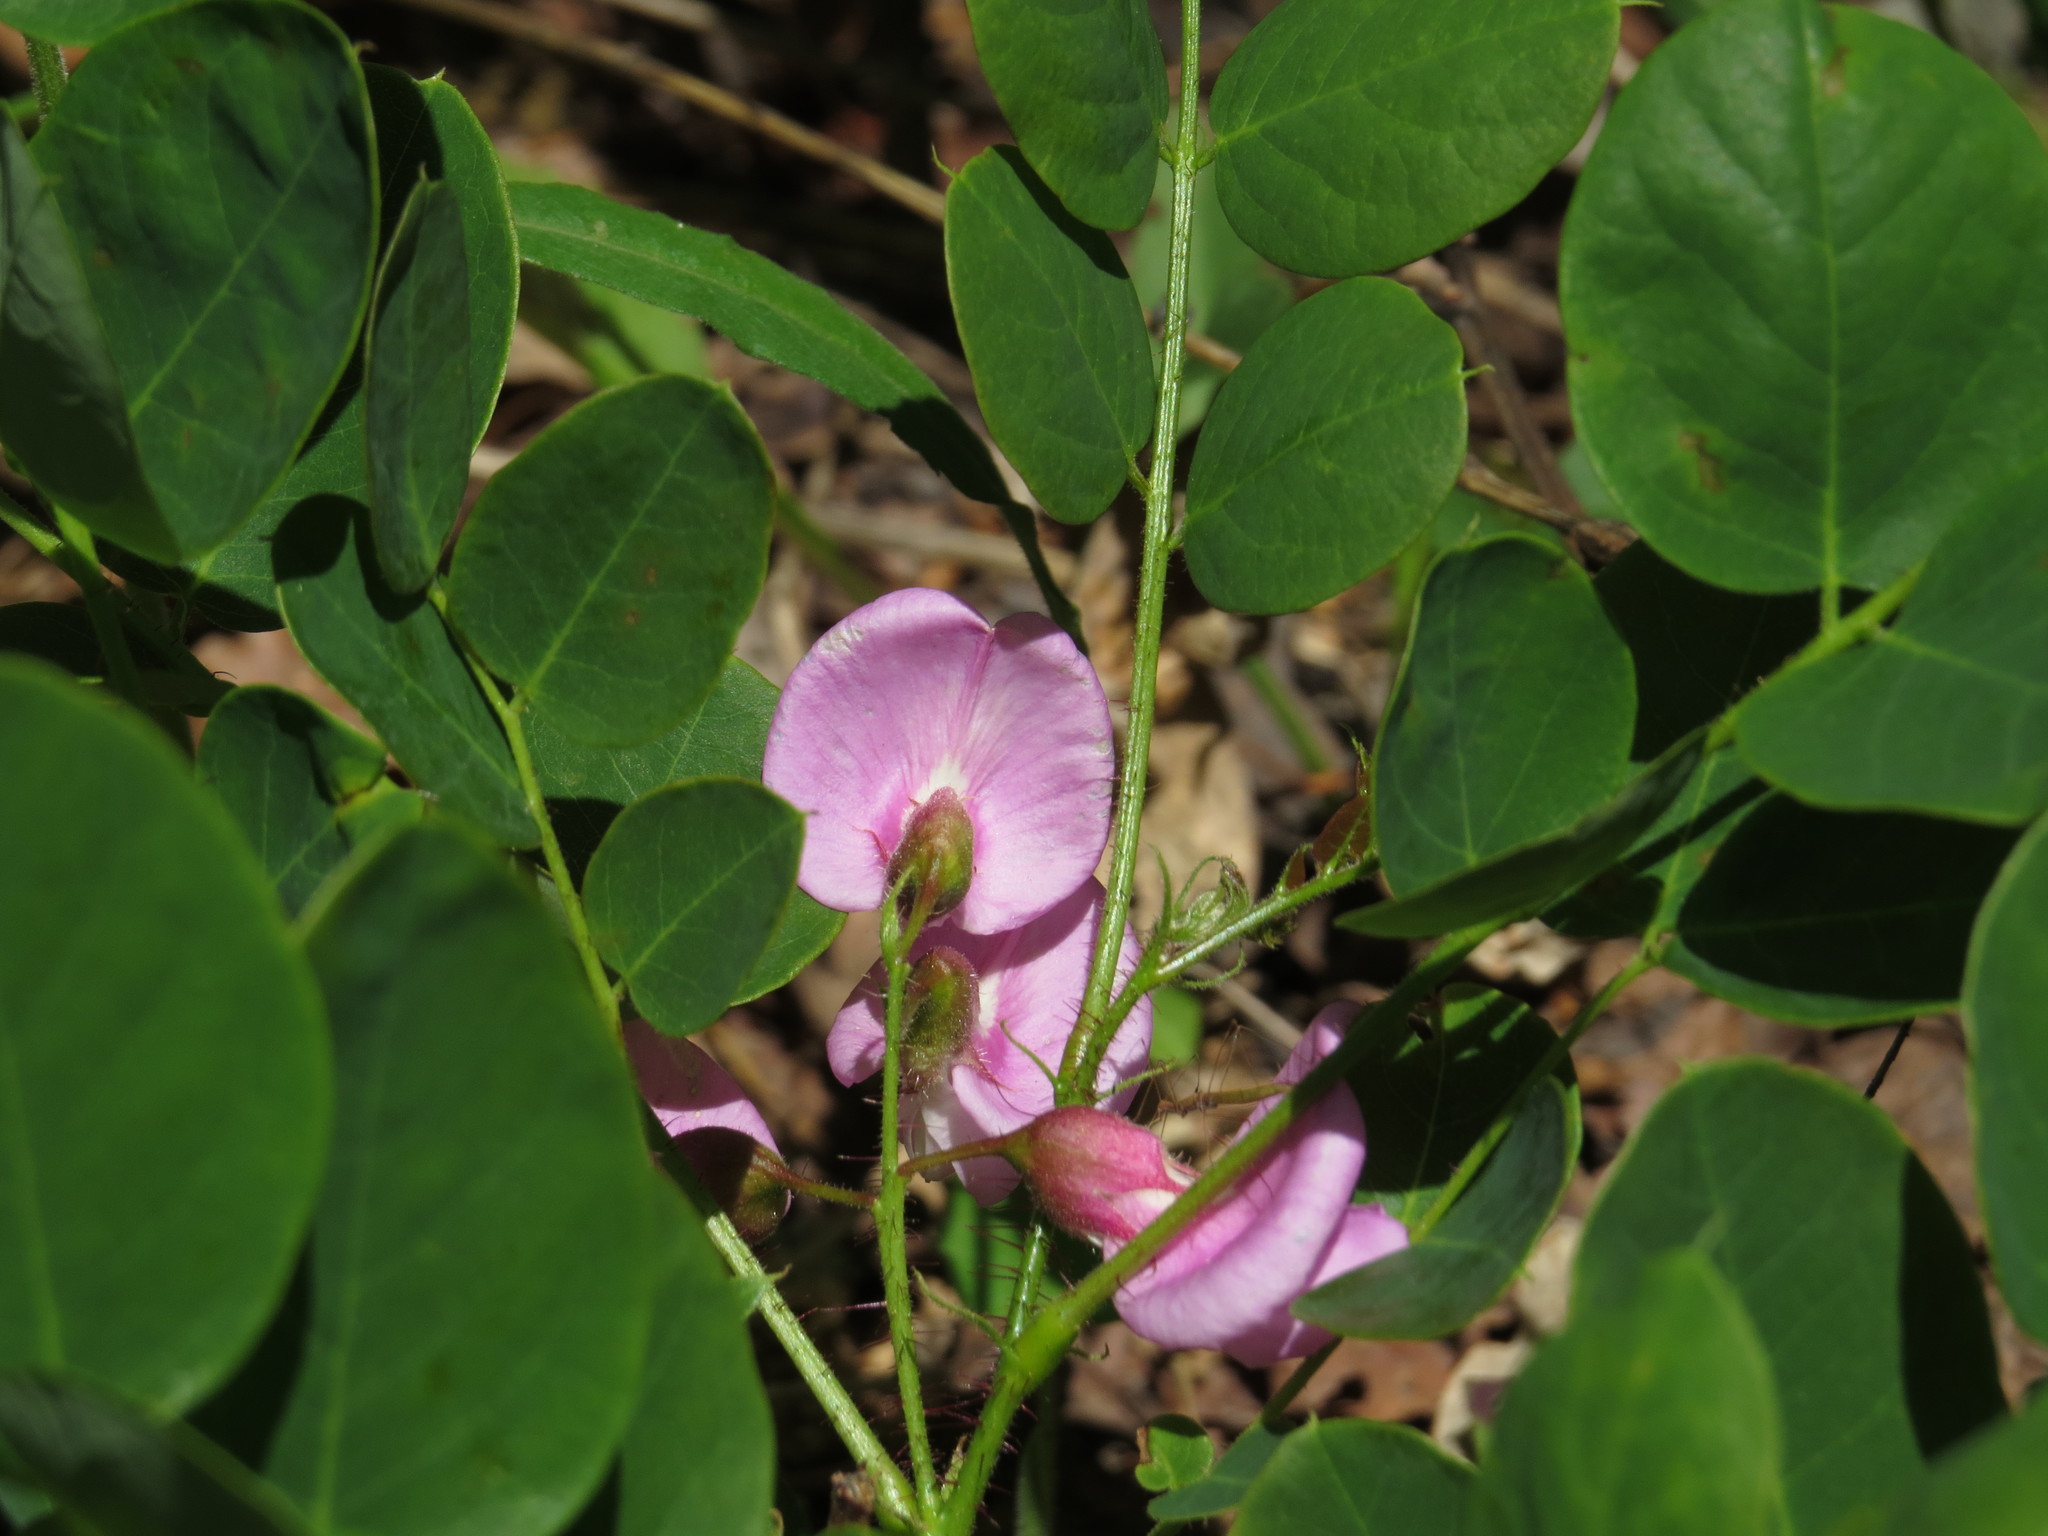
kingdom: Plantae
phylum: Tracheophyta
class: Magnoliopsida
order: Fabales
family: Fabaceae
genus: Robinia
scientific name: Robinia hispida
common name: Bristly locust
